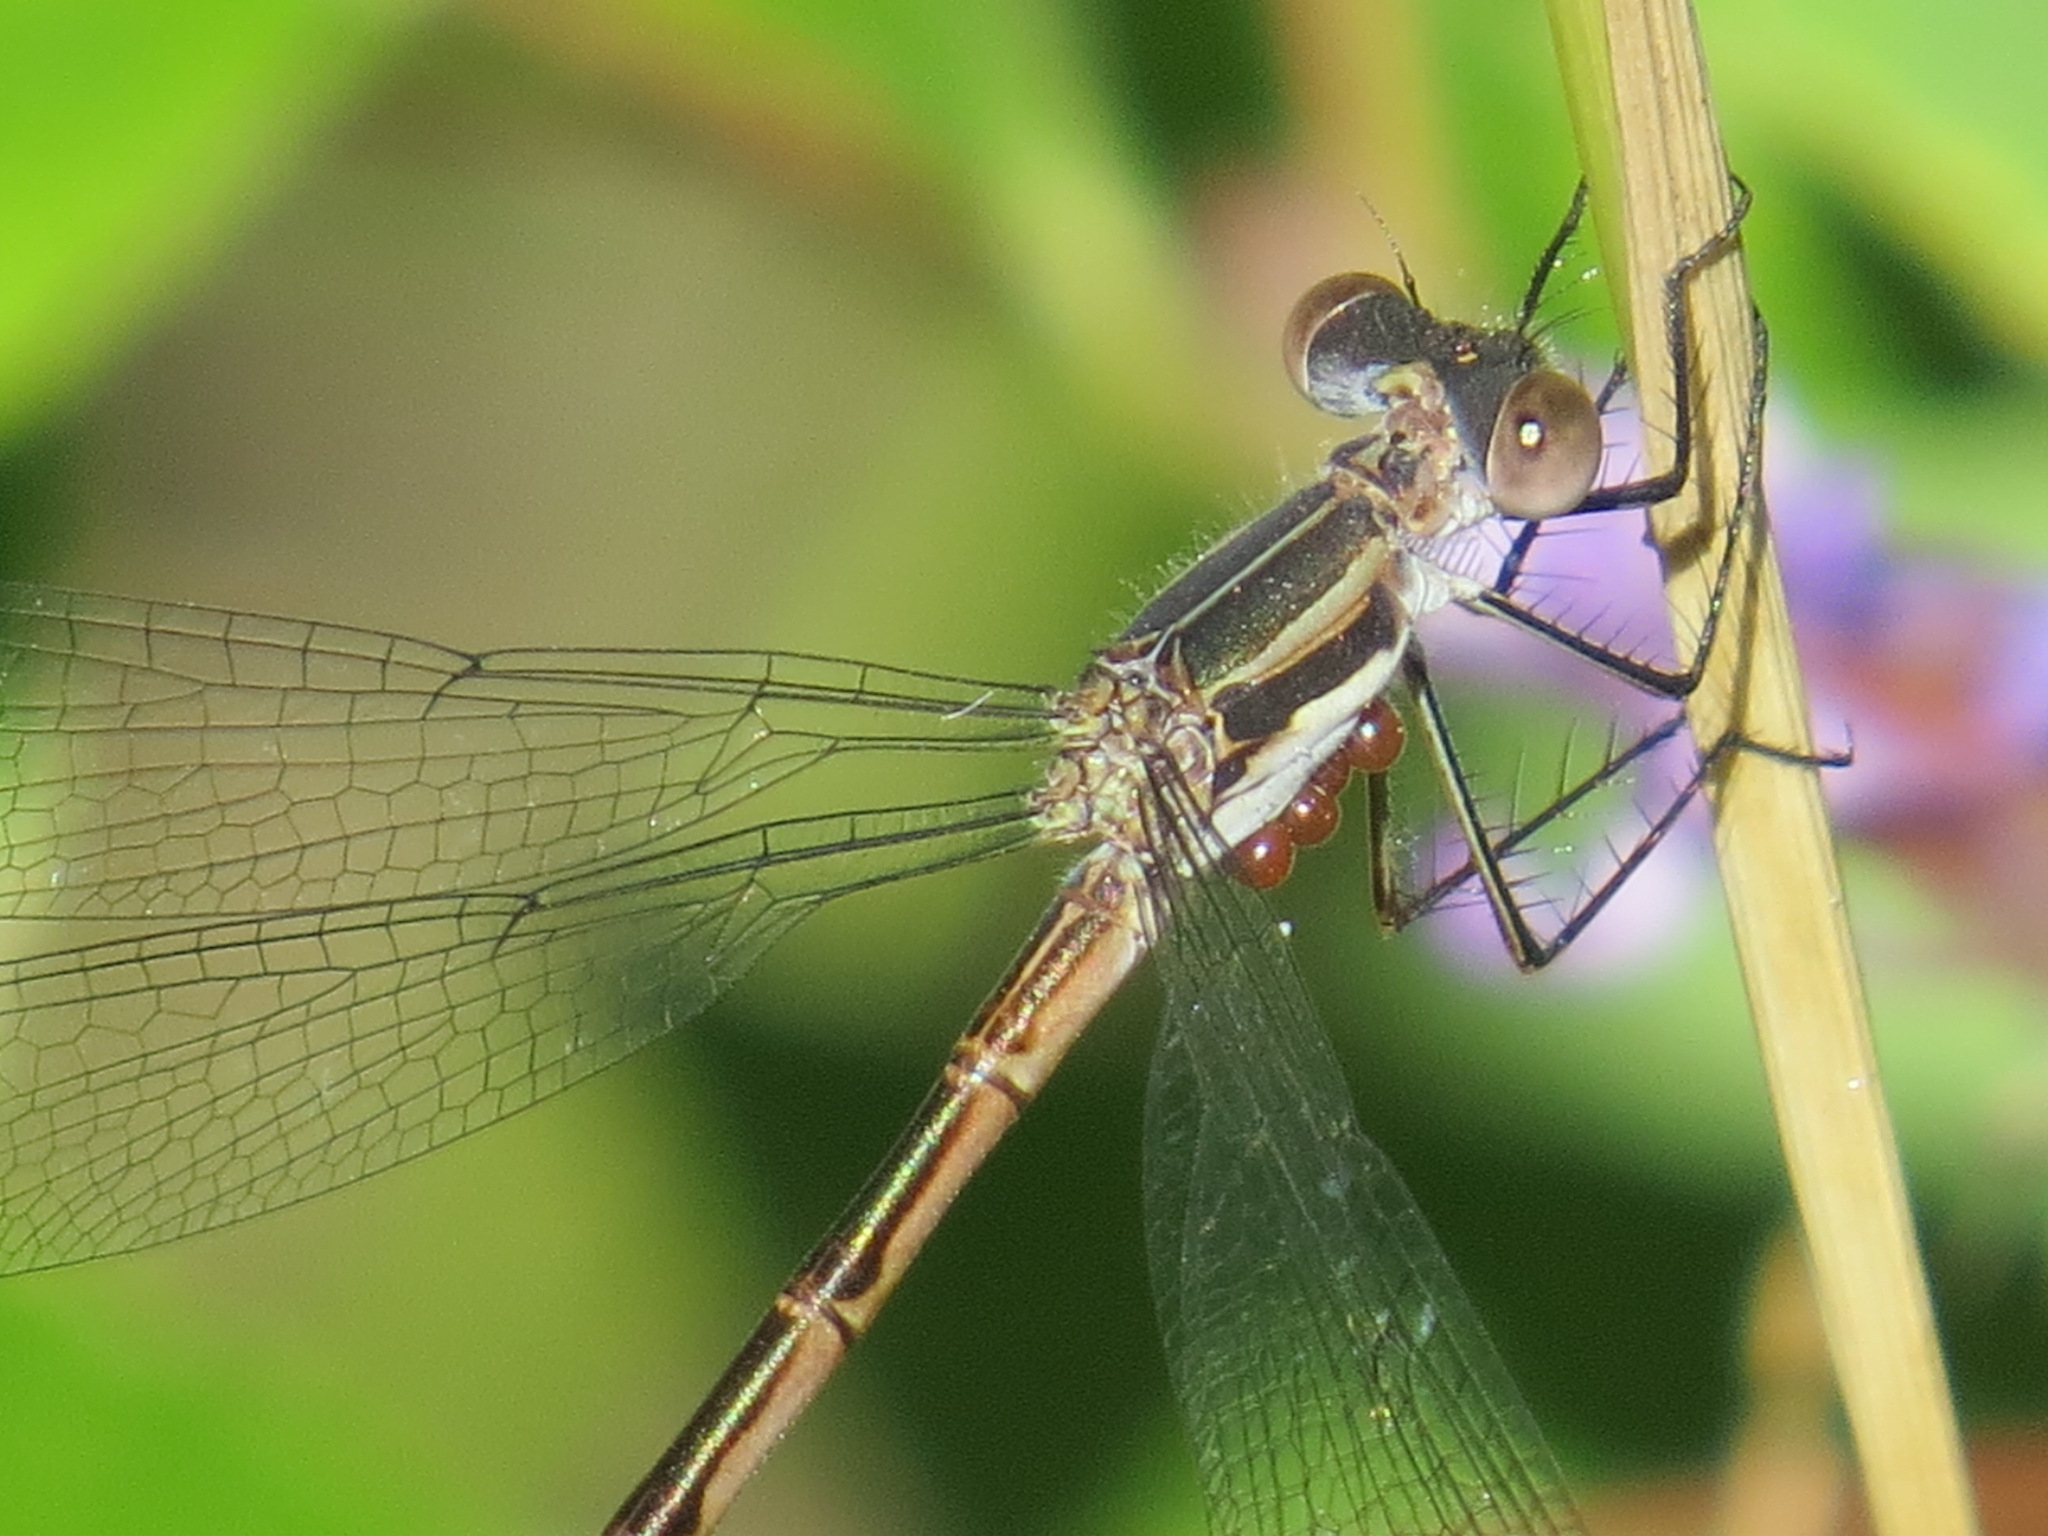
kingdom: Animalia
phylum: Arthropoda
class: Insecta
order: Odonata
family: Lestidae
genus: Lestes
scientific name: Lestes disjunctus
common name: Northern spreadwing
